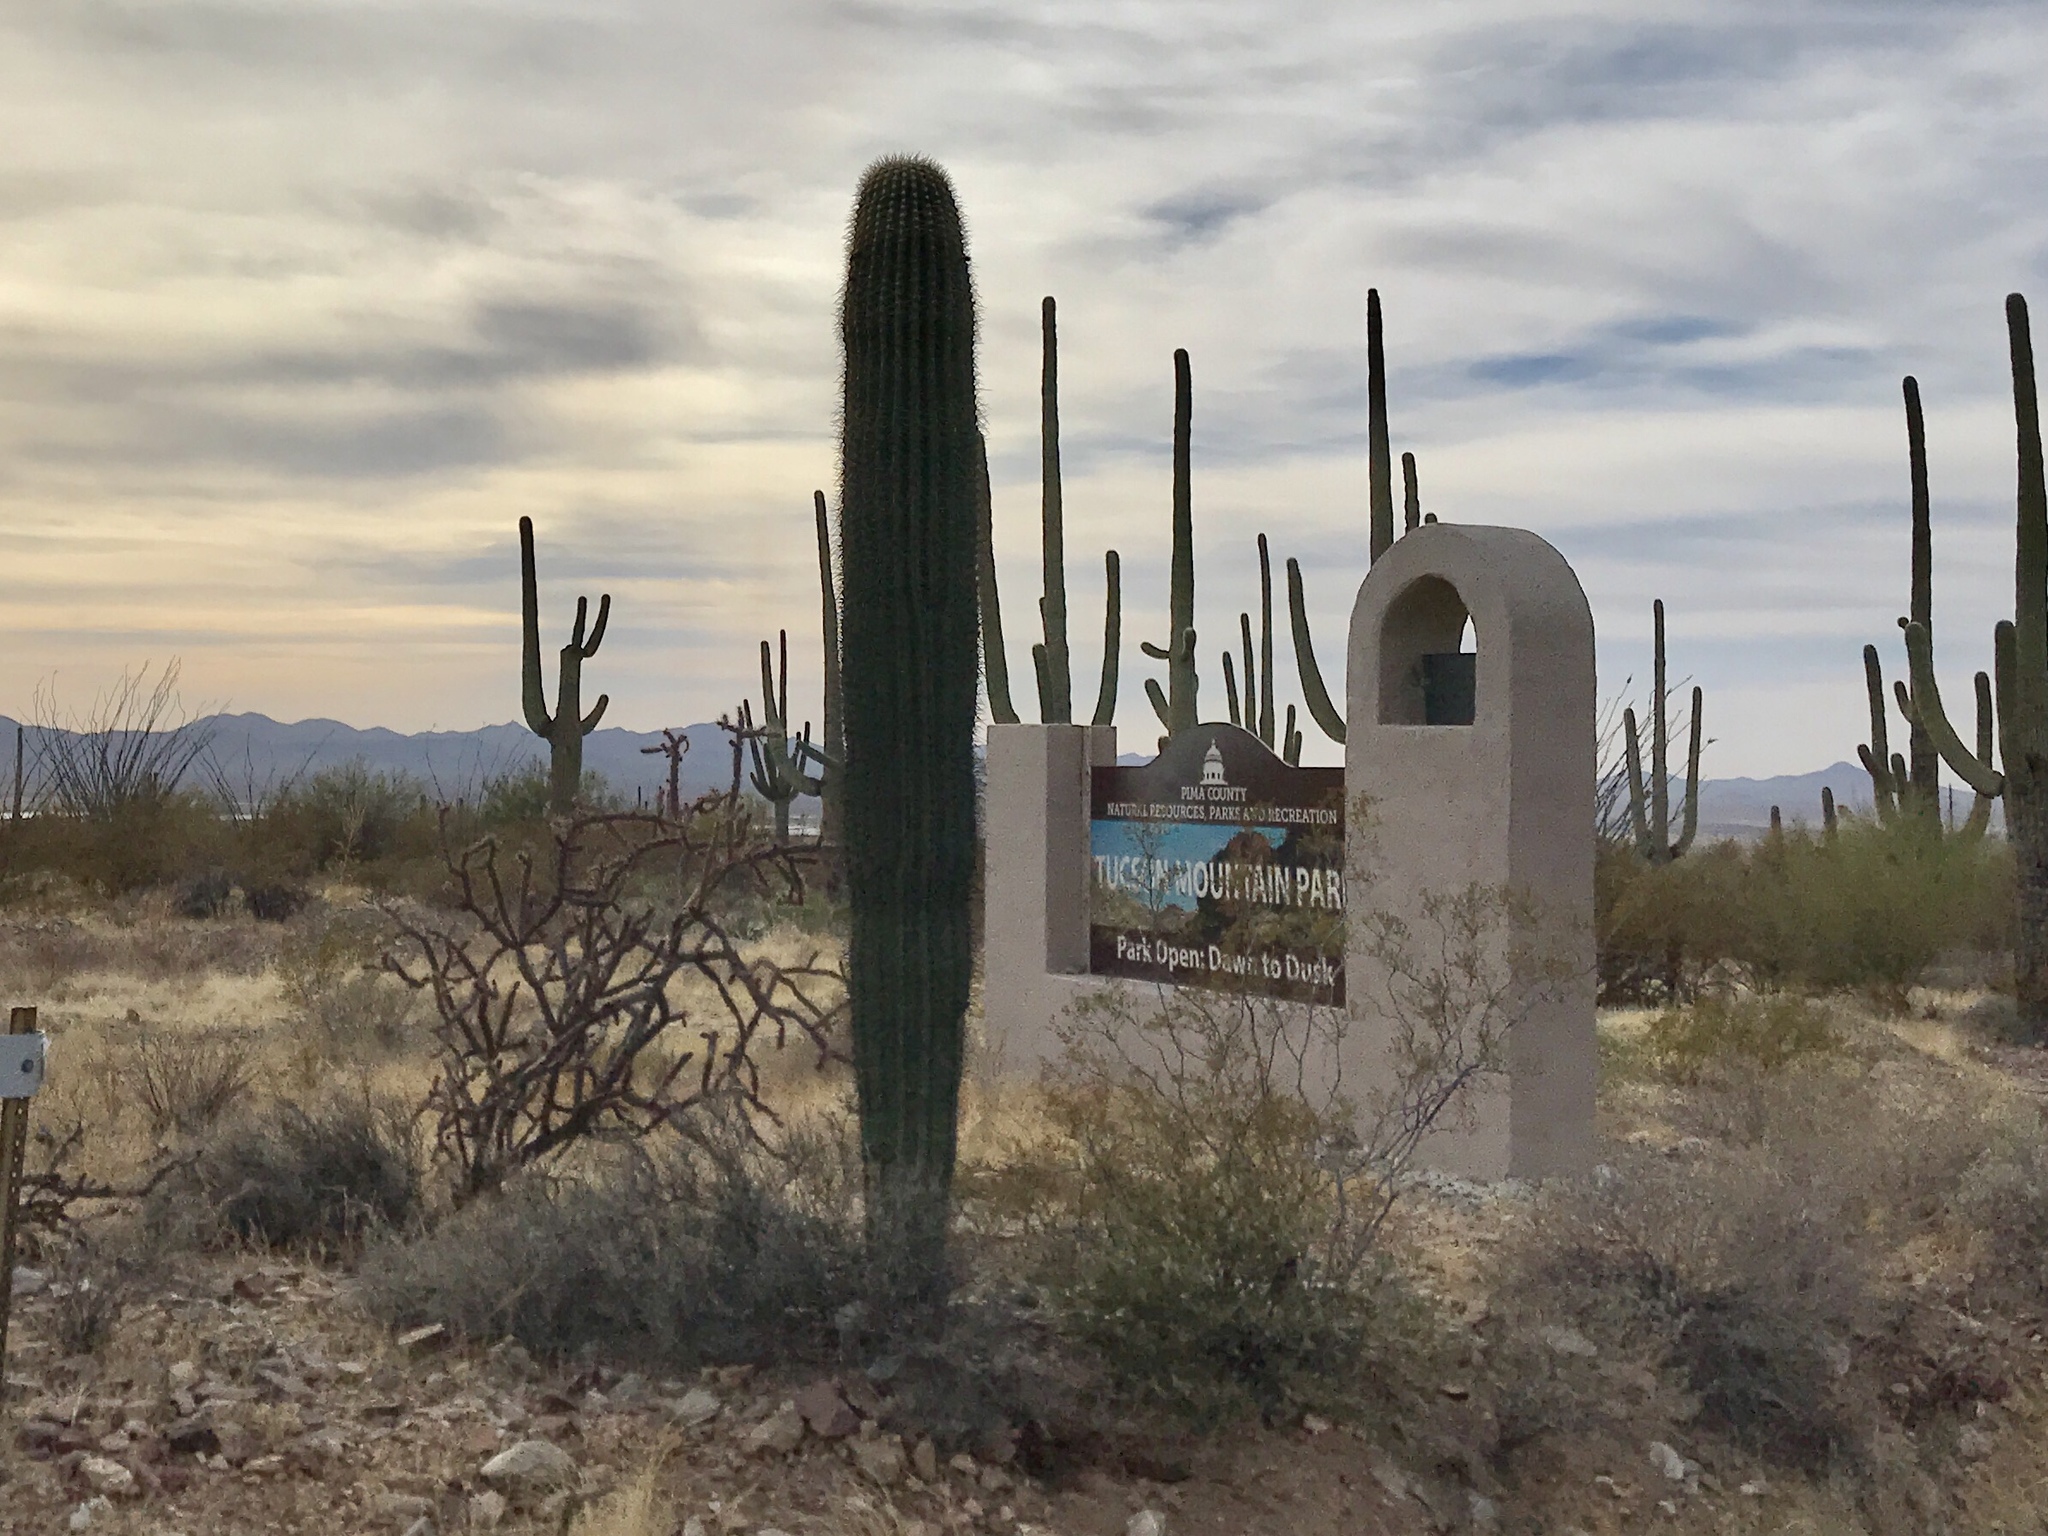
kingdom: Plantae
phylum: Tracheophyta
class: Magnoliopsida
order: Caryophyllales
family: Cactaceae
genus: Carnegiea
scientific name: Carnegiea gigantea
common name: Saguaro
